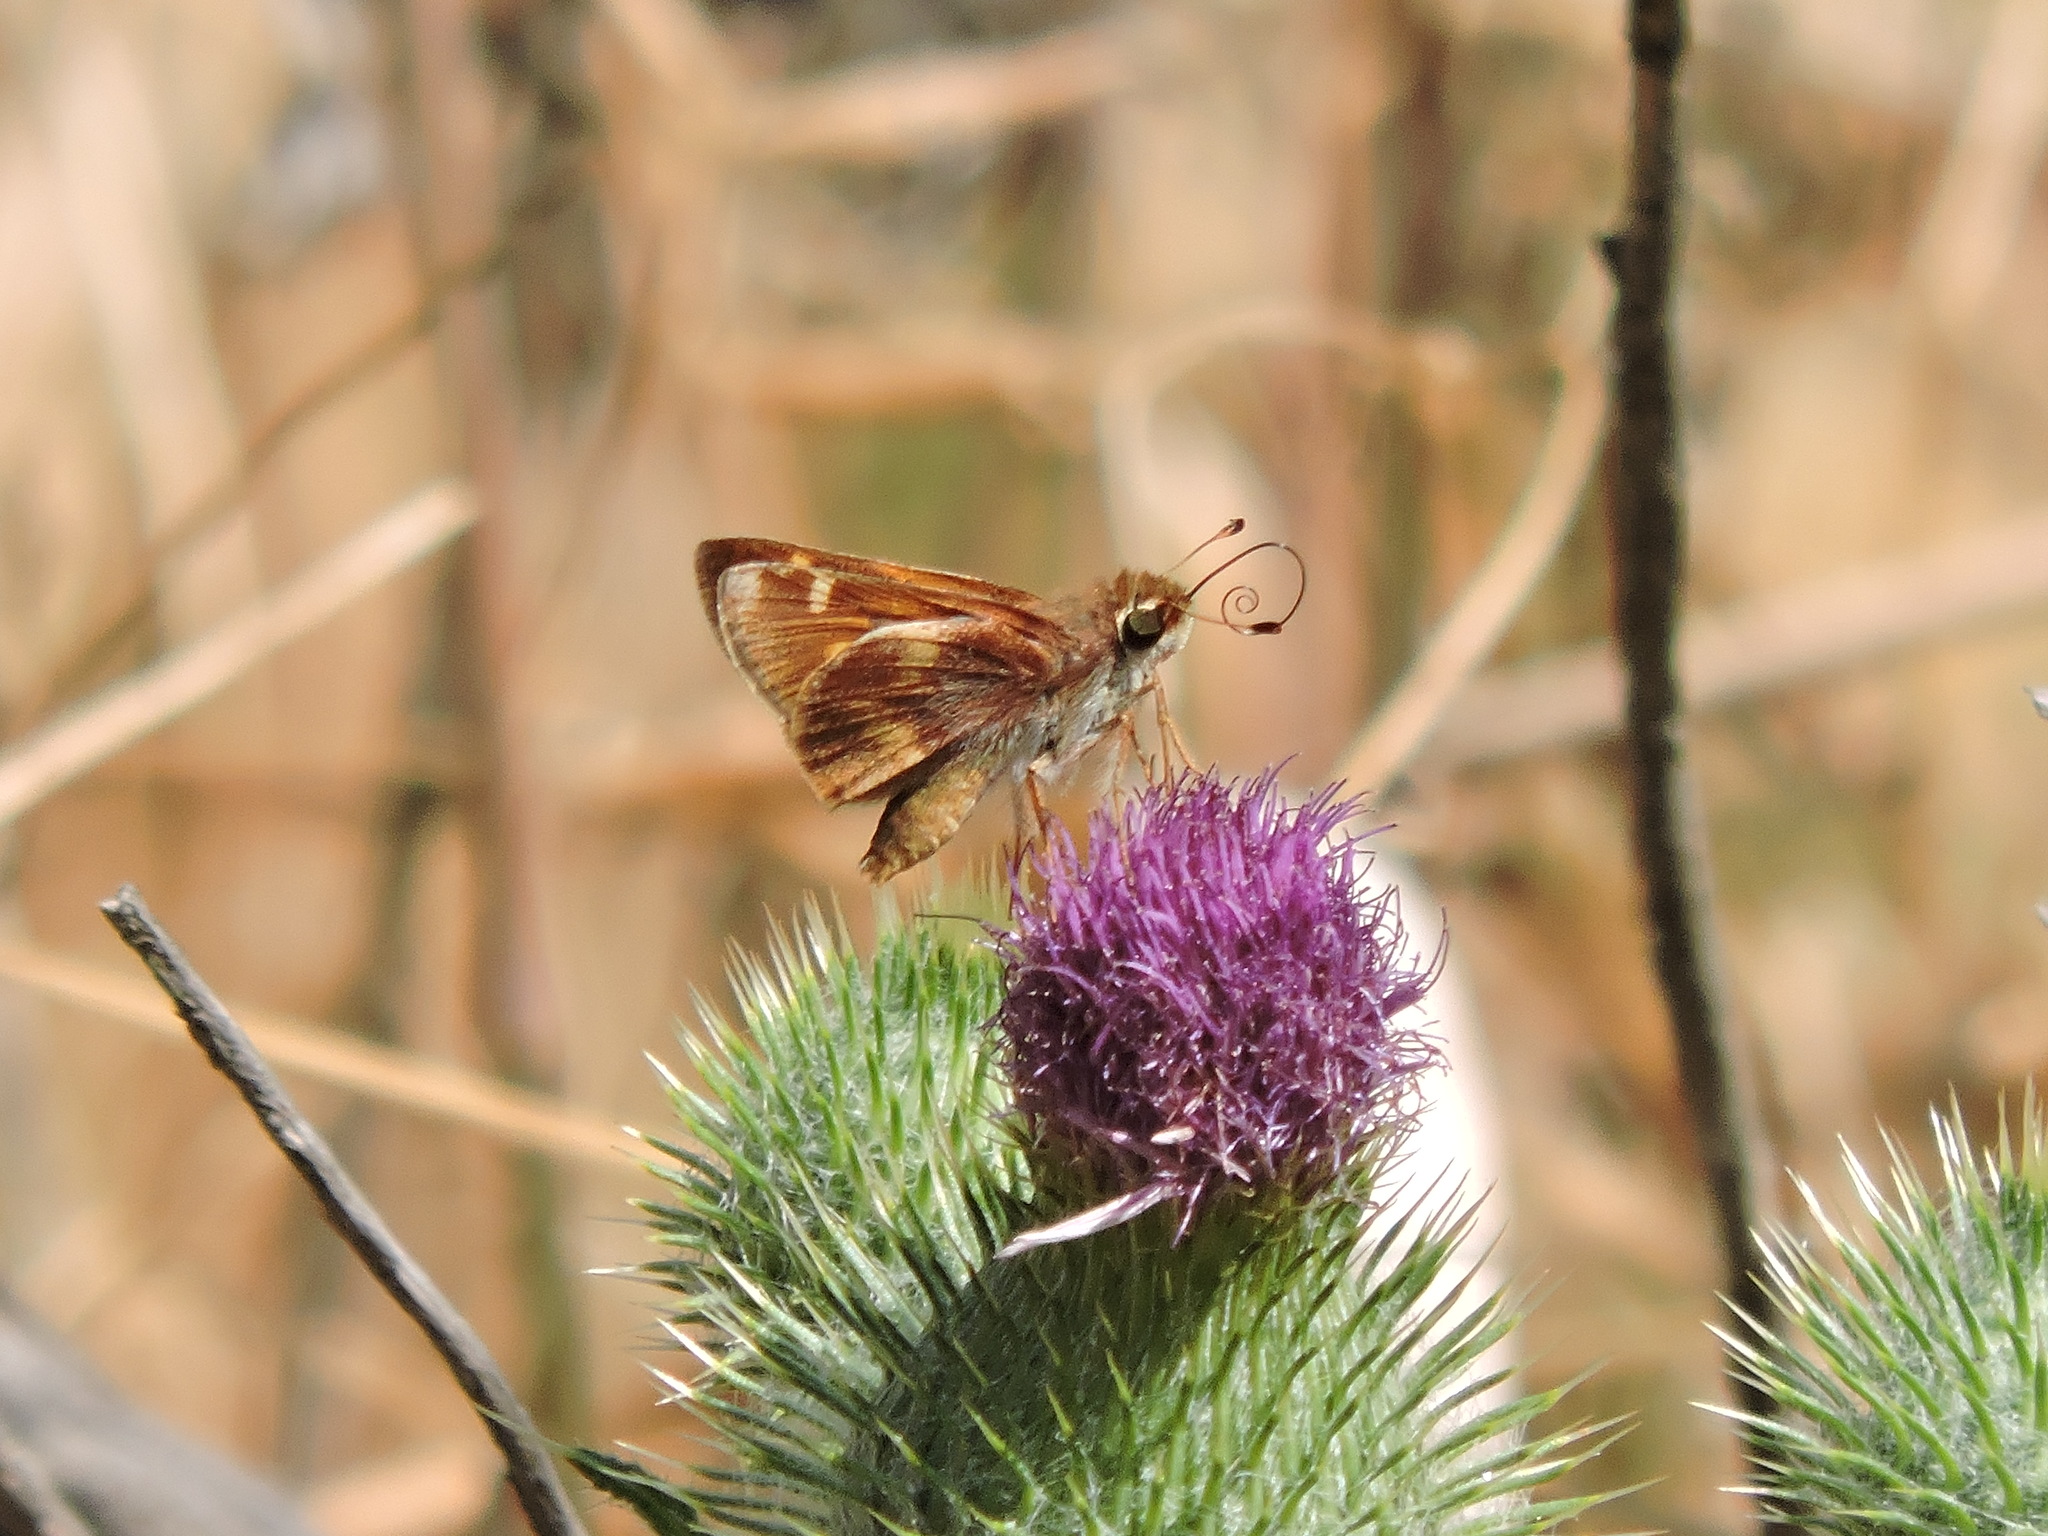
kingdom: Animalia
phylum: Arthropoda
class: Insecta
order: Lepidoptera
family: Hesperiidae
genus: Lon
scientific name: Lon melane
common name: Umber skipper
